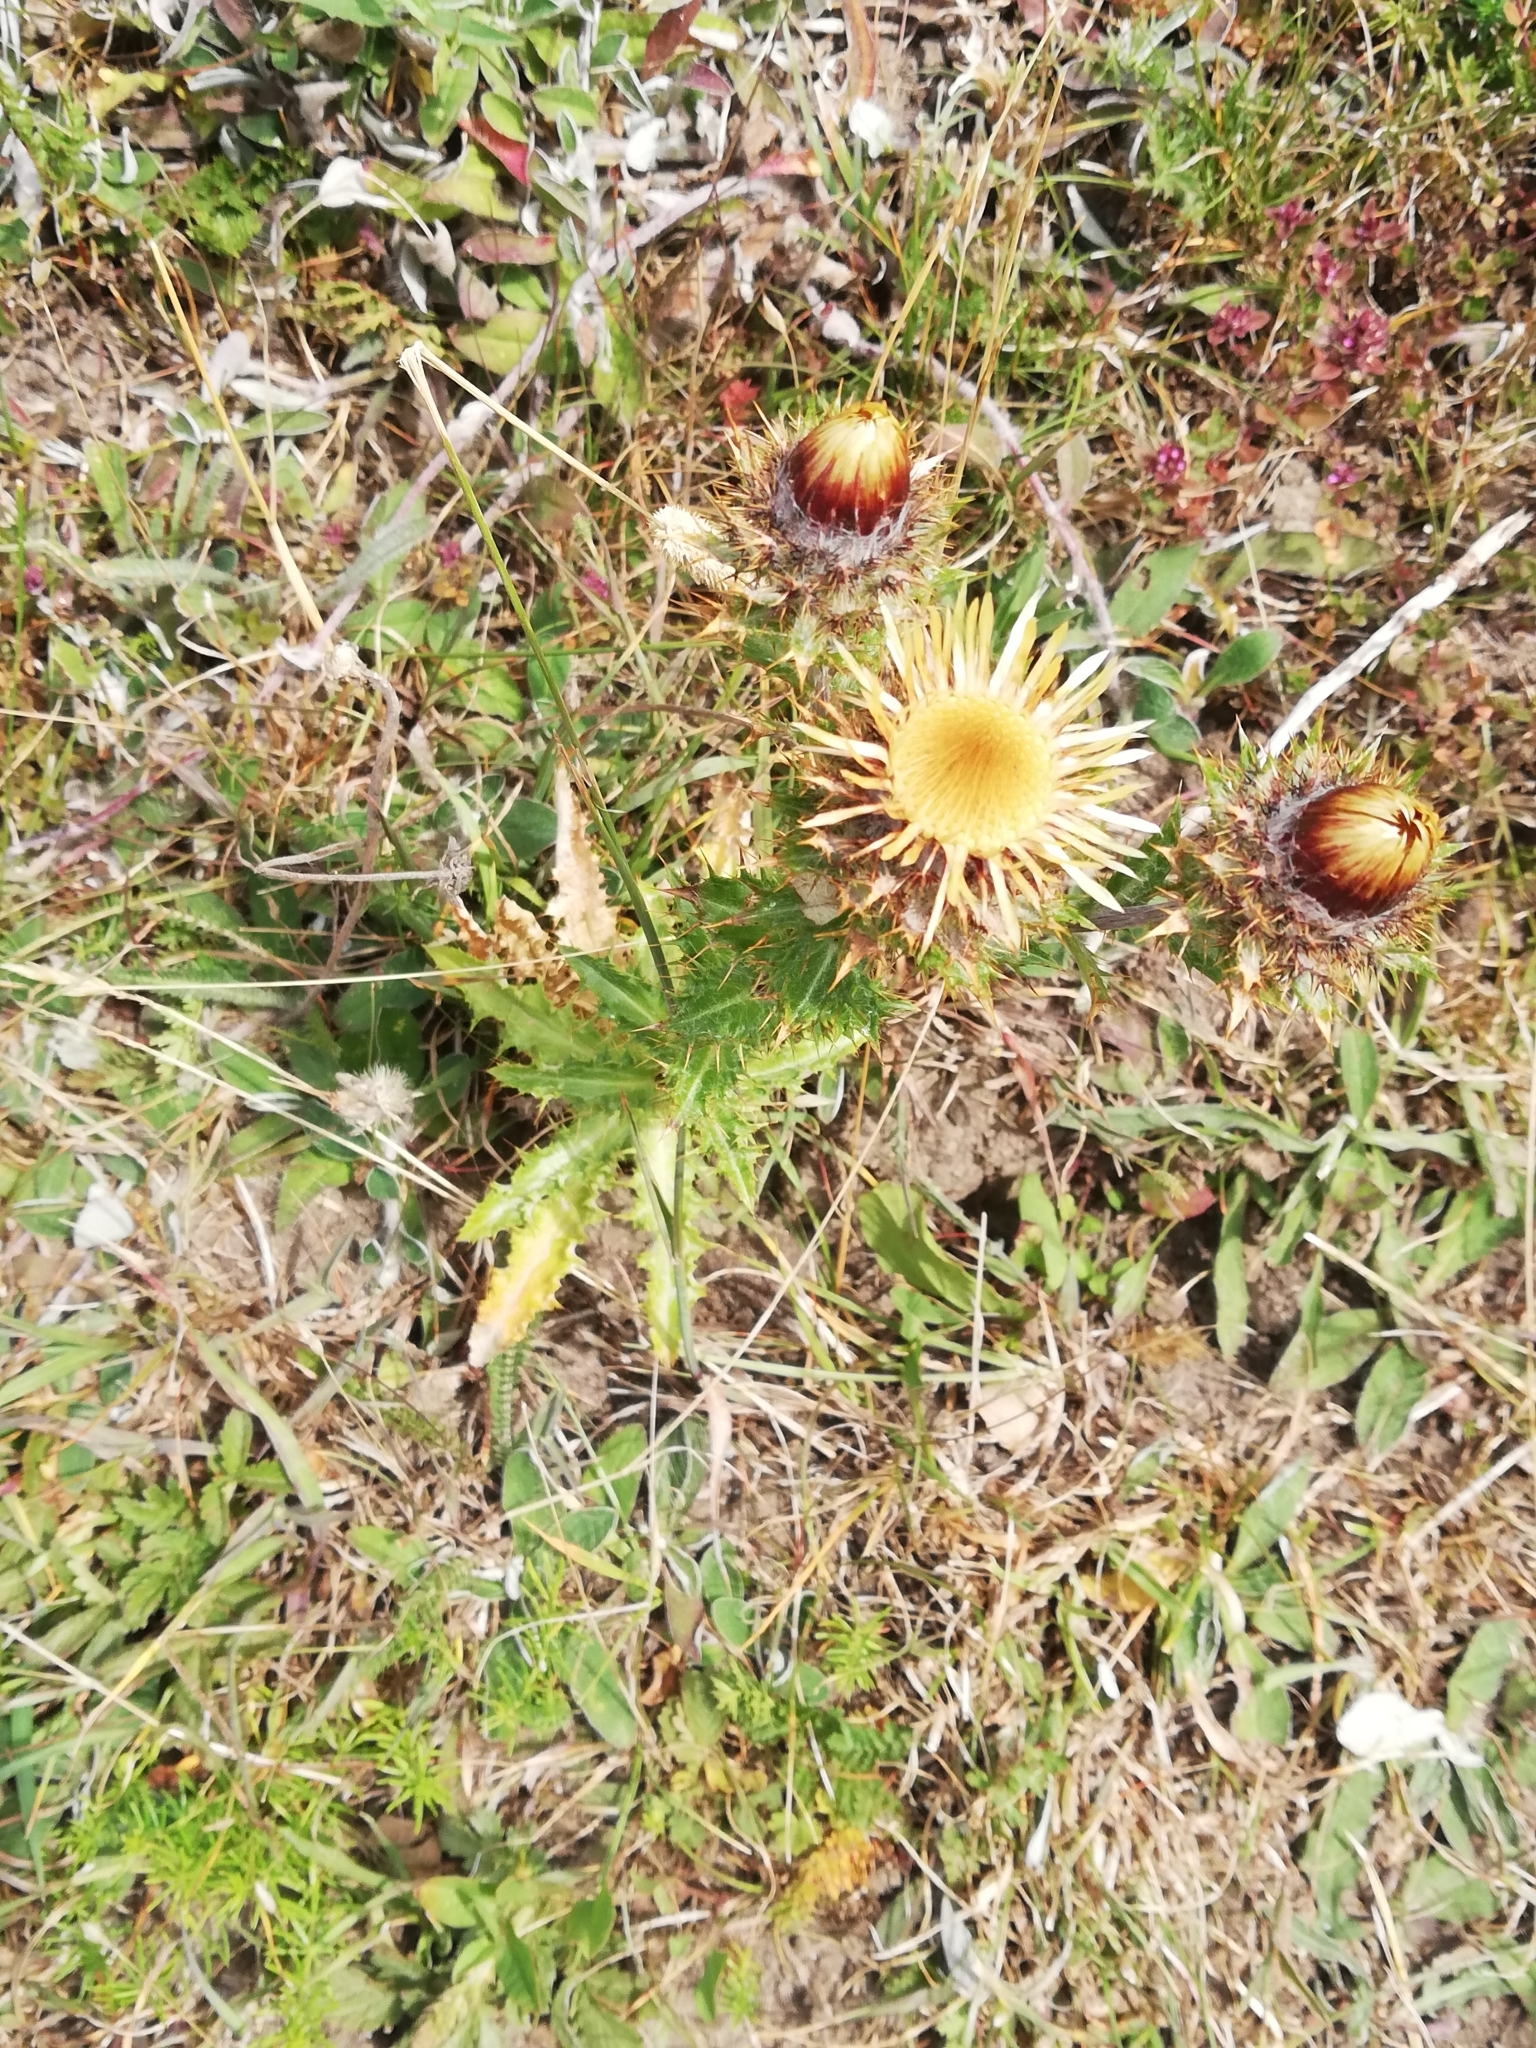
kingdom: Plantae
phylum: Tracheophyta
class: Magnoliopsida
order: Asterales
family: Asteraceae
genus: Carlina
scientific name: Carlina vulgaris
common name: Carline thistle
